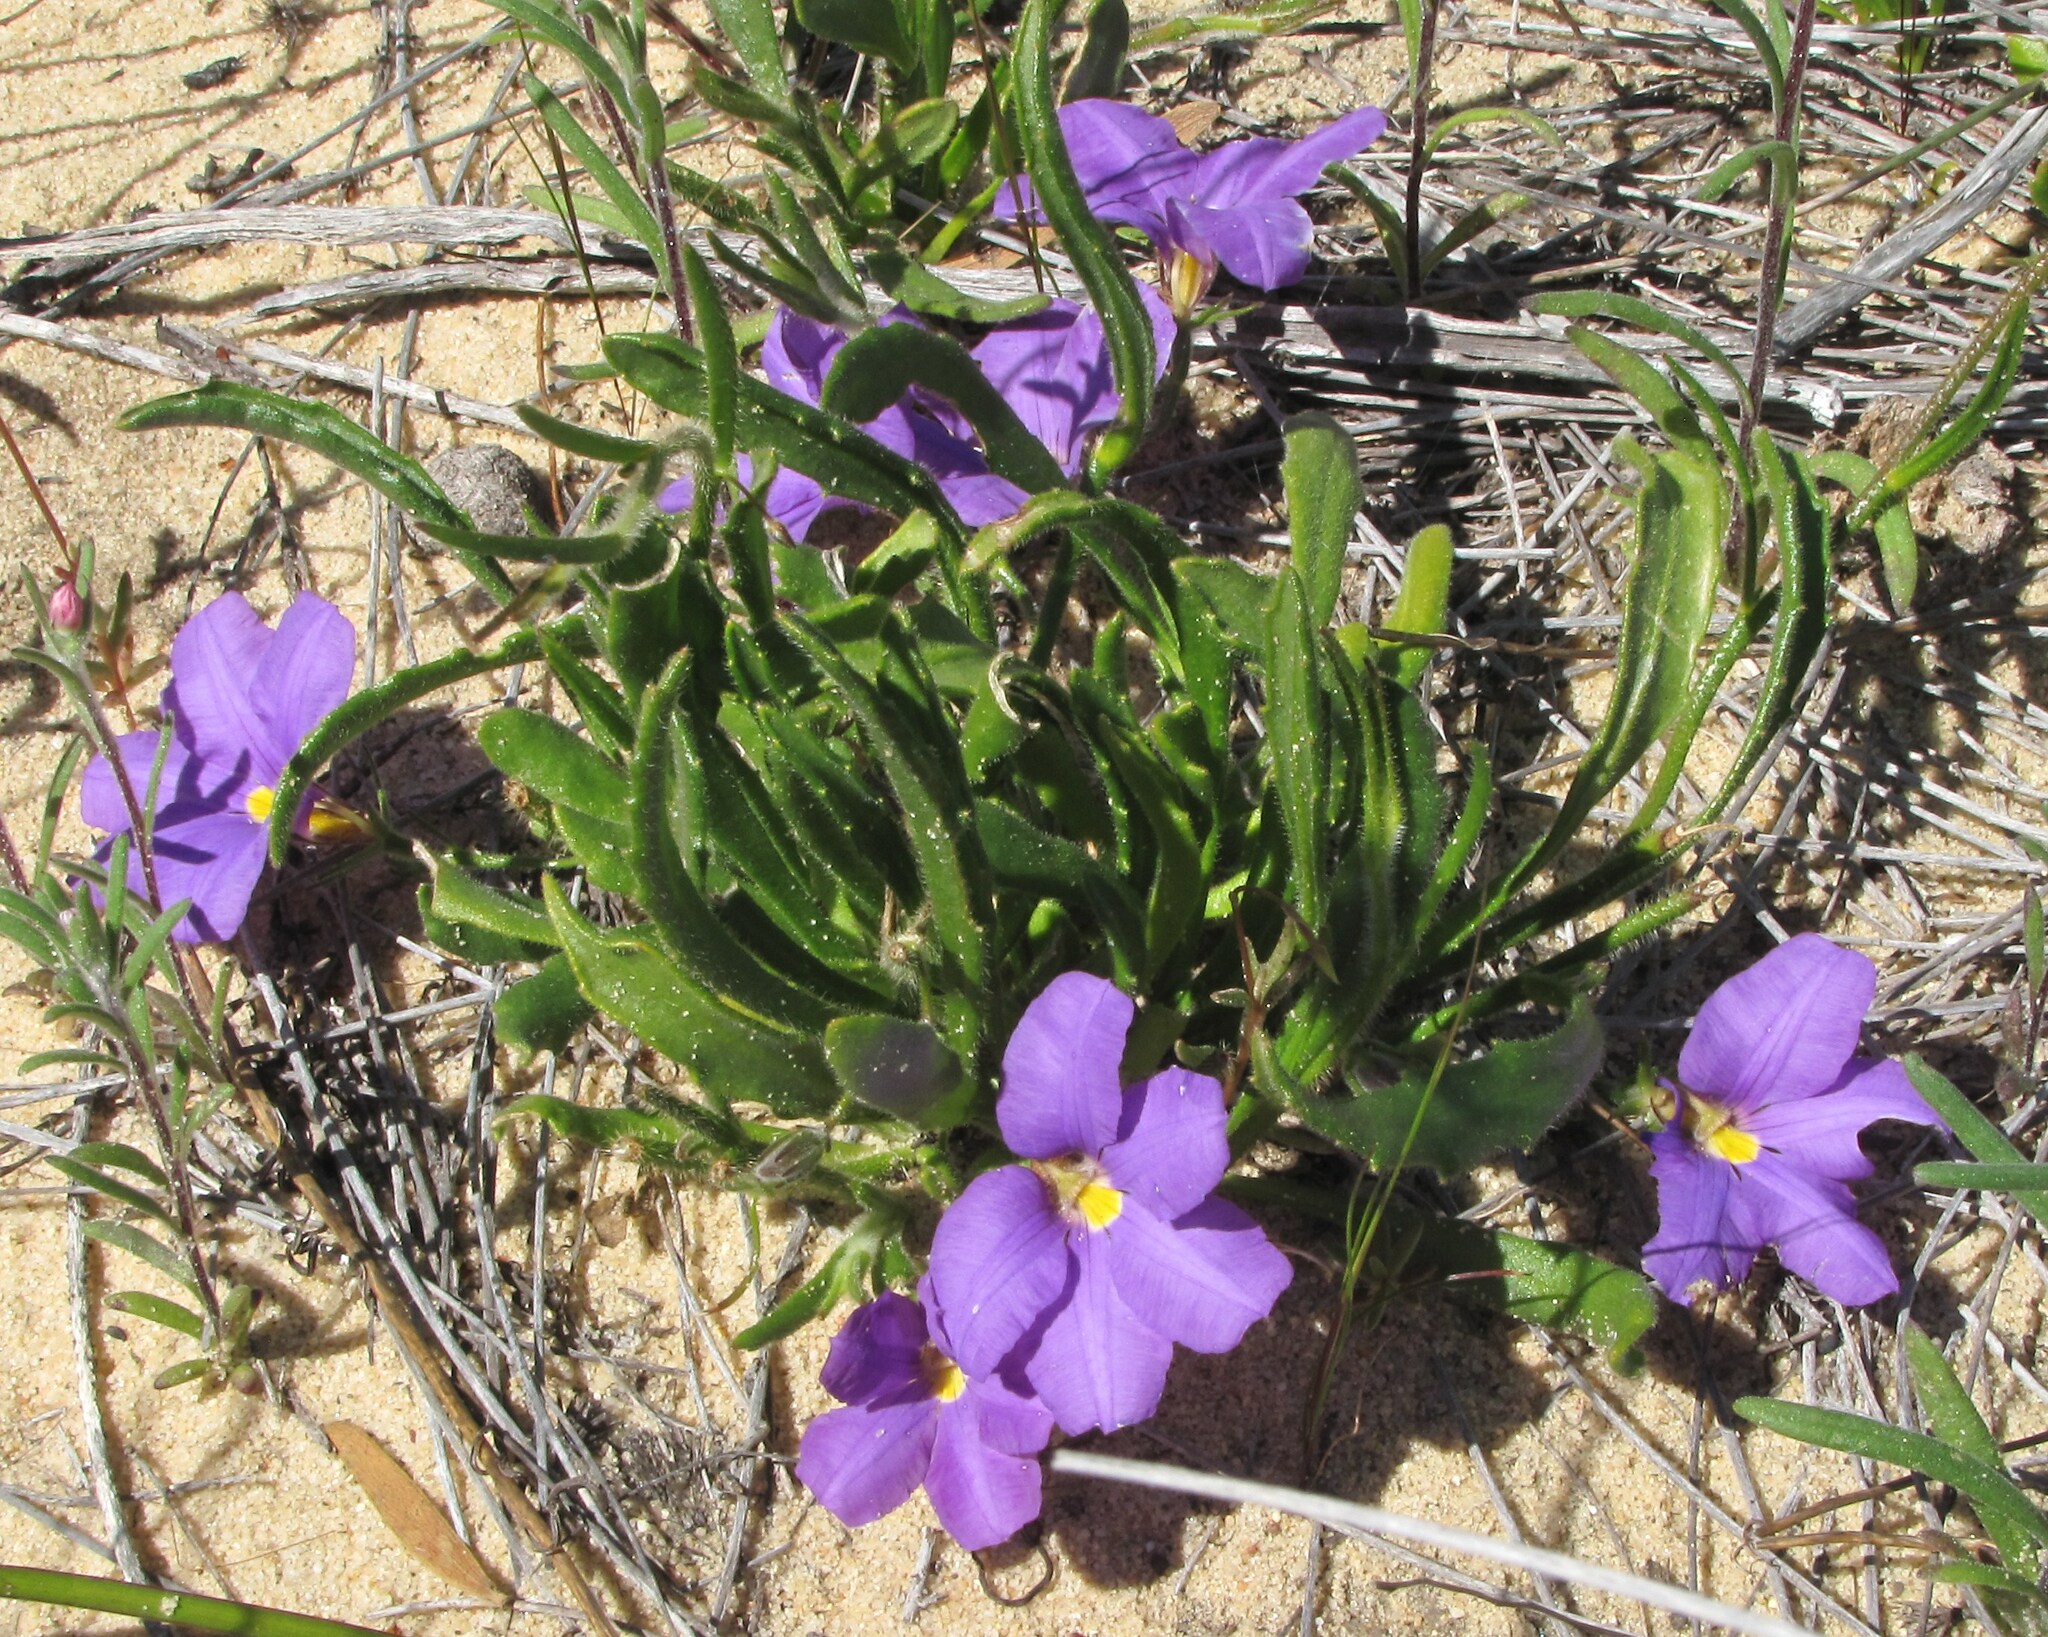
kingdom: Plantae
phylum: Tracheophyta
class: Magnoliopsida
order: Asterales
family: Goodeniaceae
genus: Scaevola
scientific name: Scaevola phlebopetala
